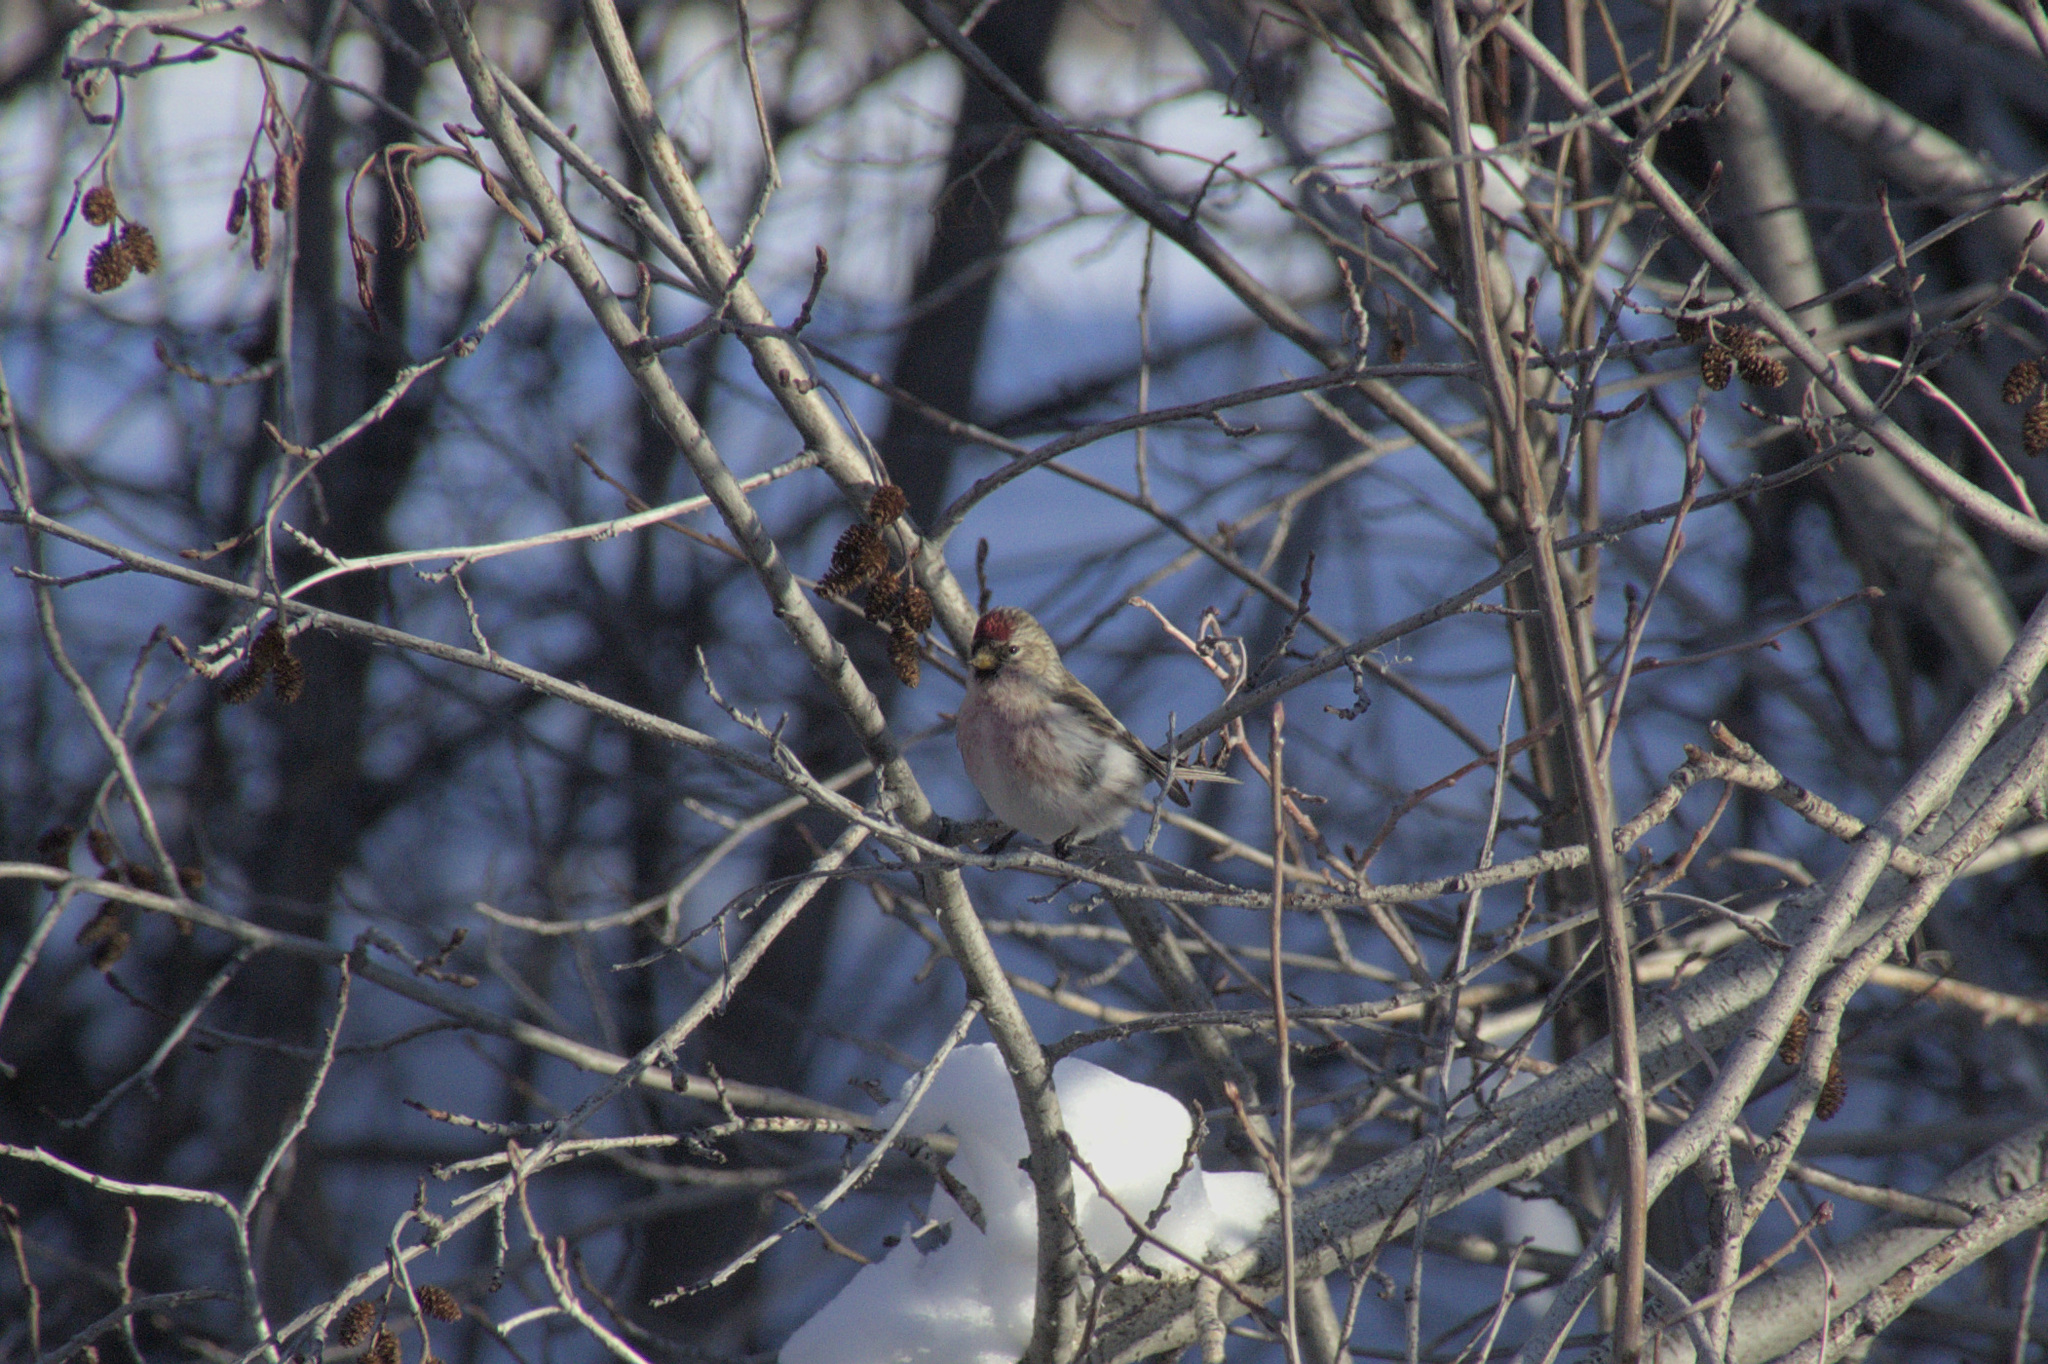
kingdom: Animalia
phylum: Chordata
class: Aves
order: Passeriformes
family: Fringillidae
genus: Acanthis
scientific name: Acanthis flammea
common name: Common redpoll
